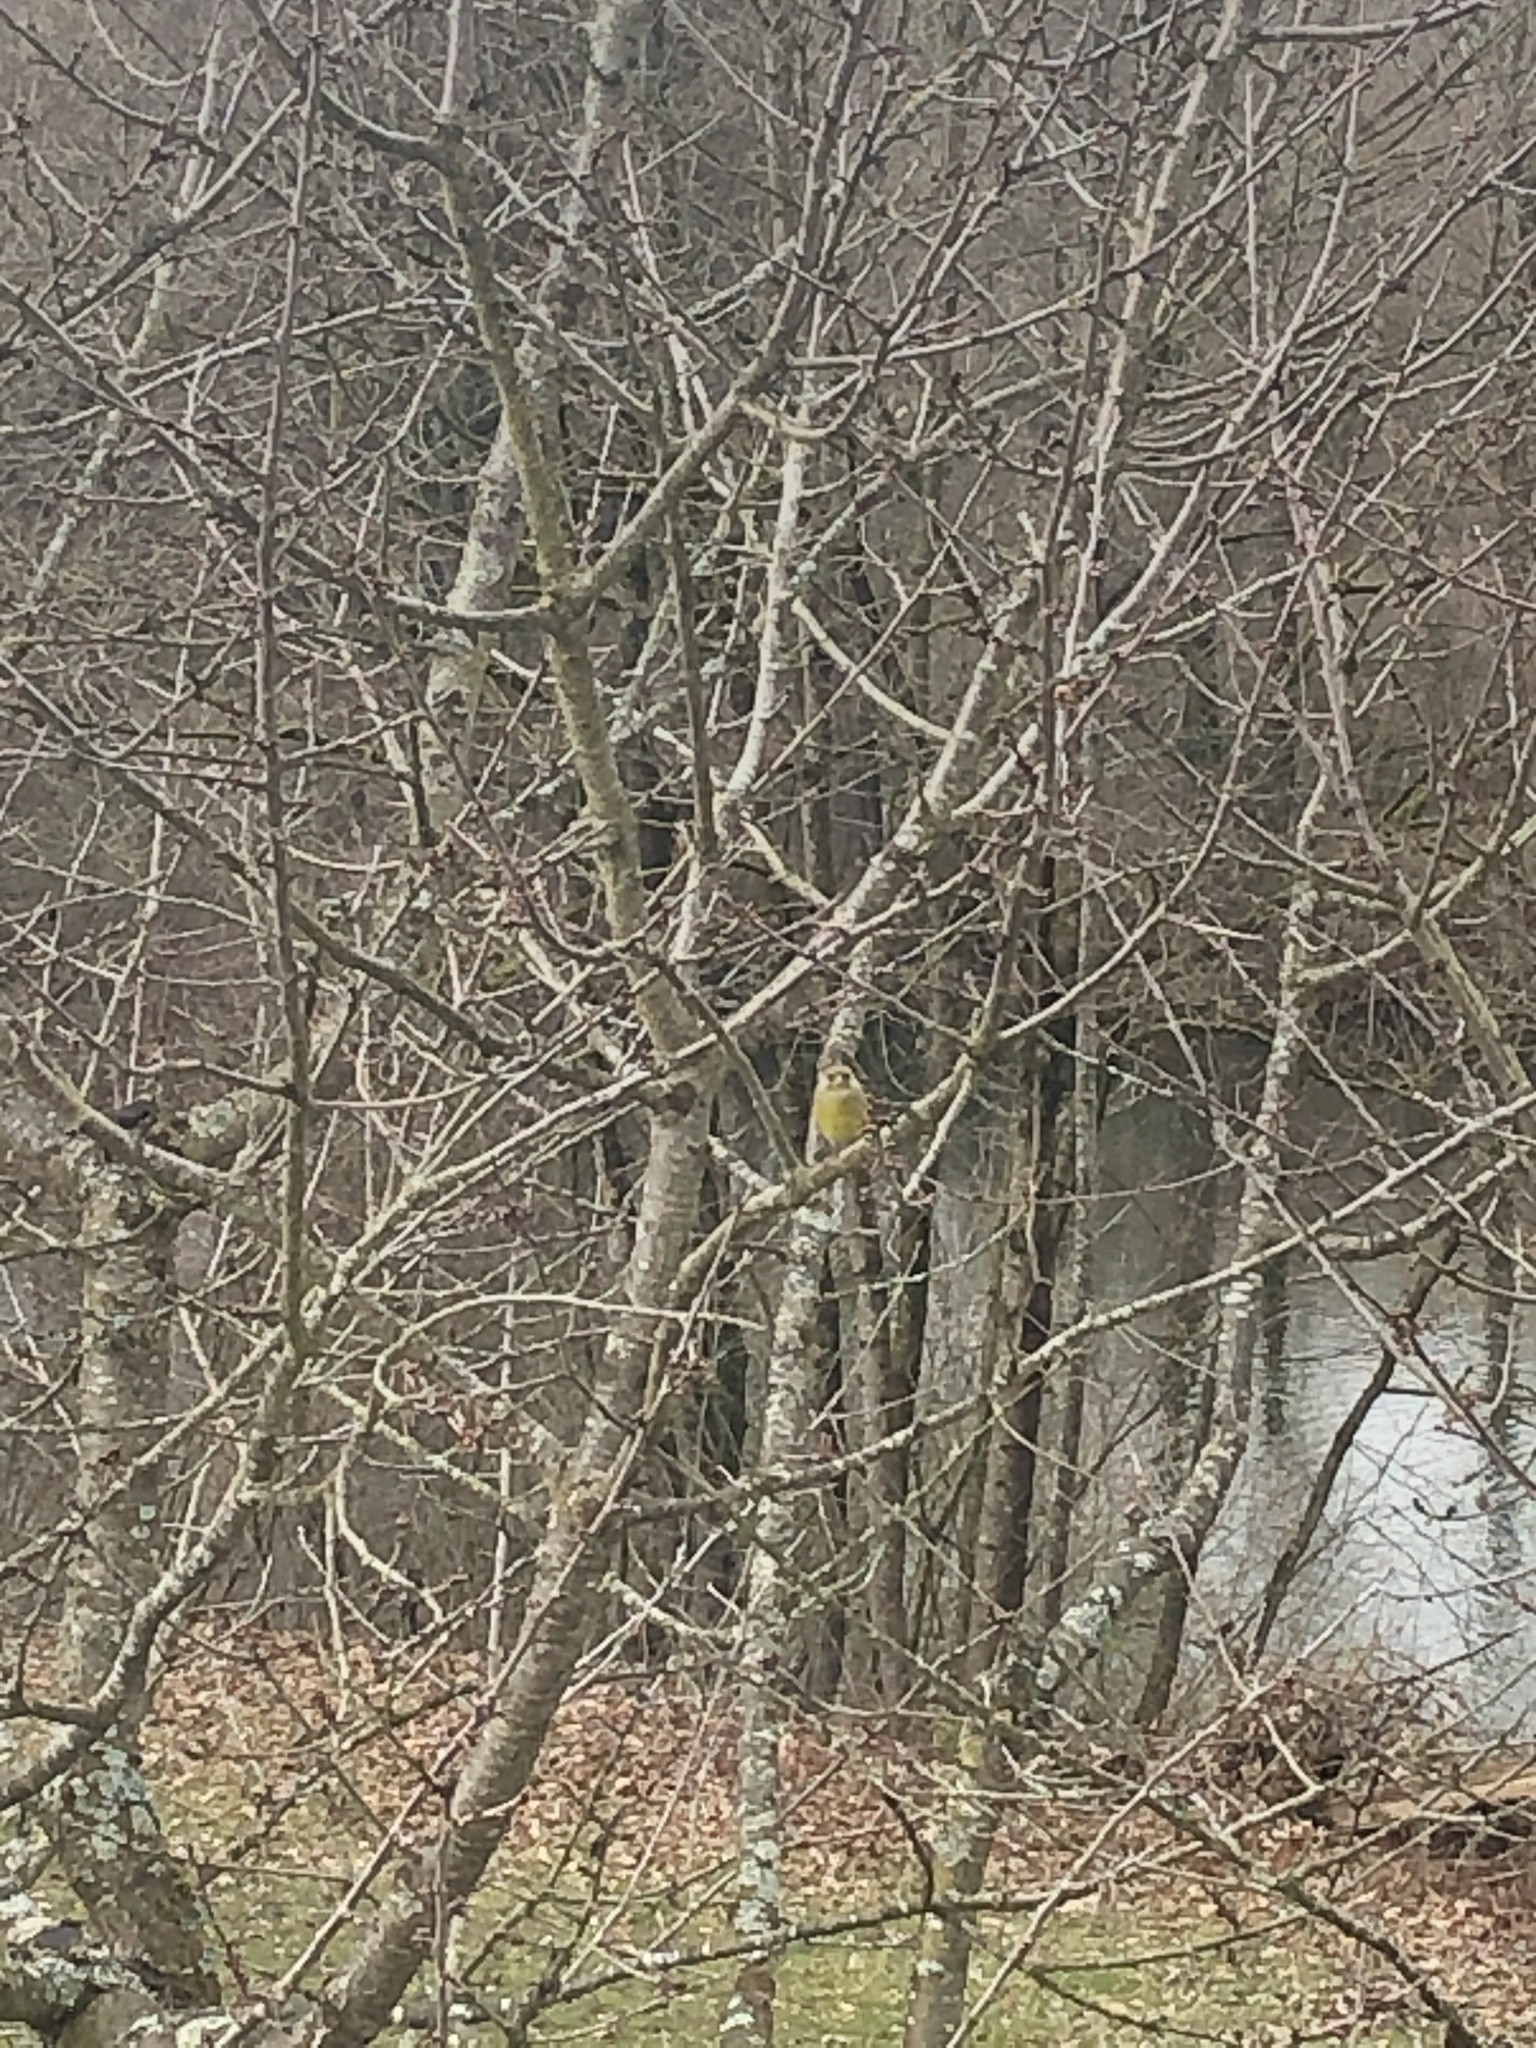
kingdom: Plantae
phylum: Tracheophyta
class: Liliopsida
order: Poales
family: Poaceae
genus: Chloris
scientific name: Chloris chloris
